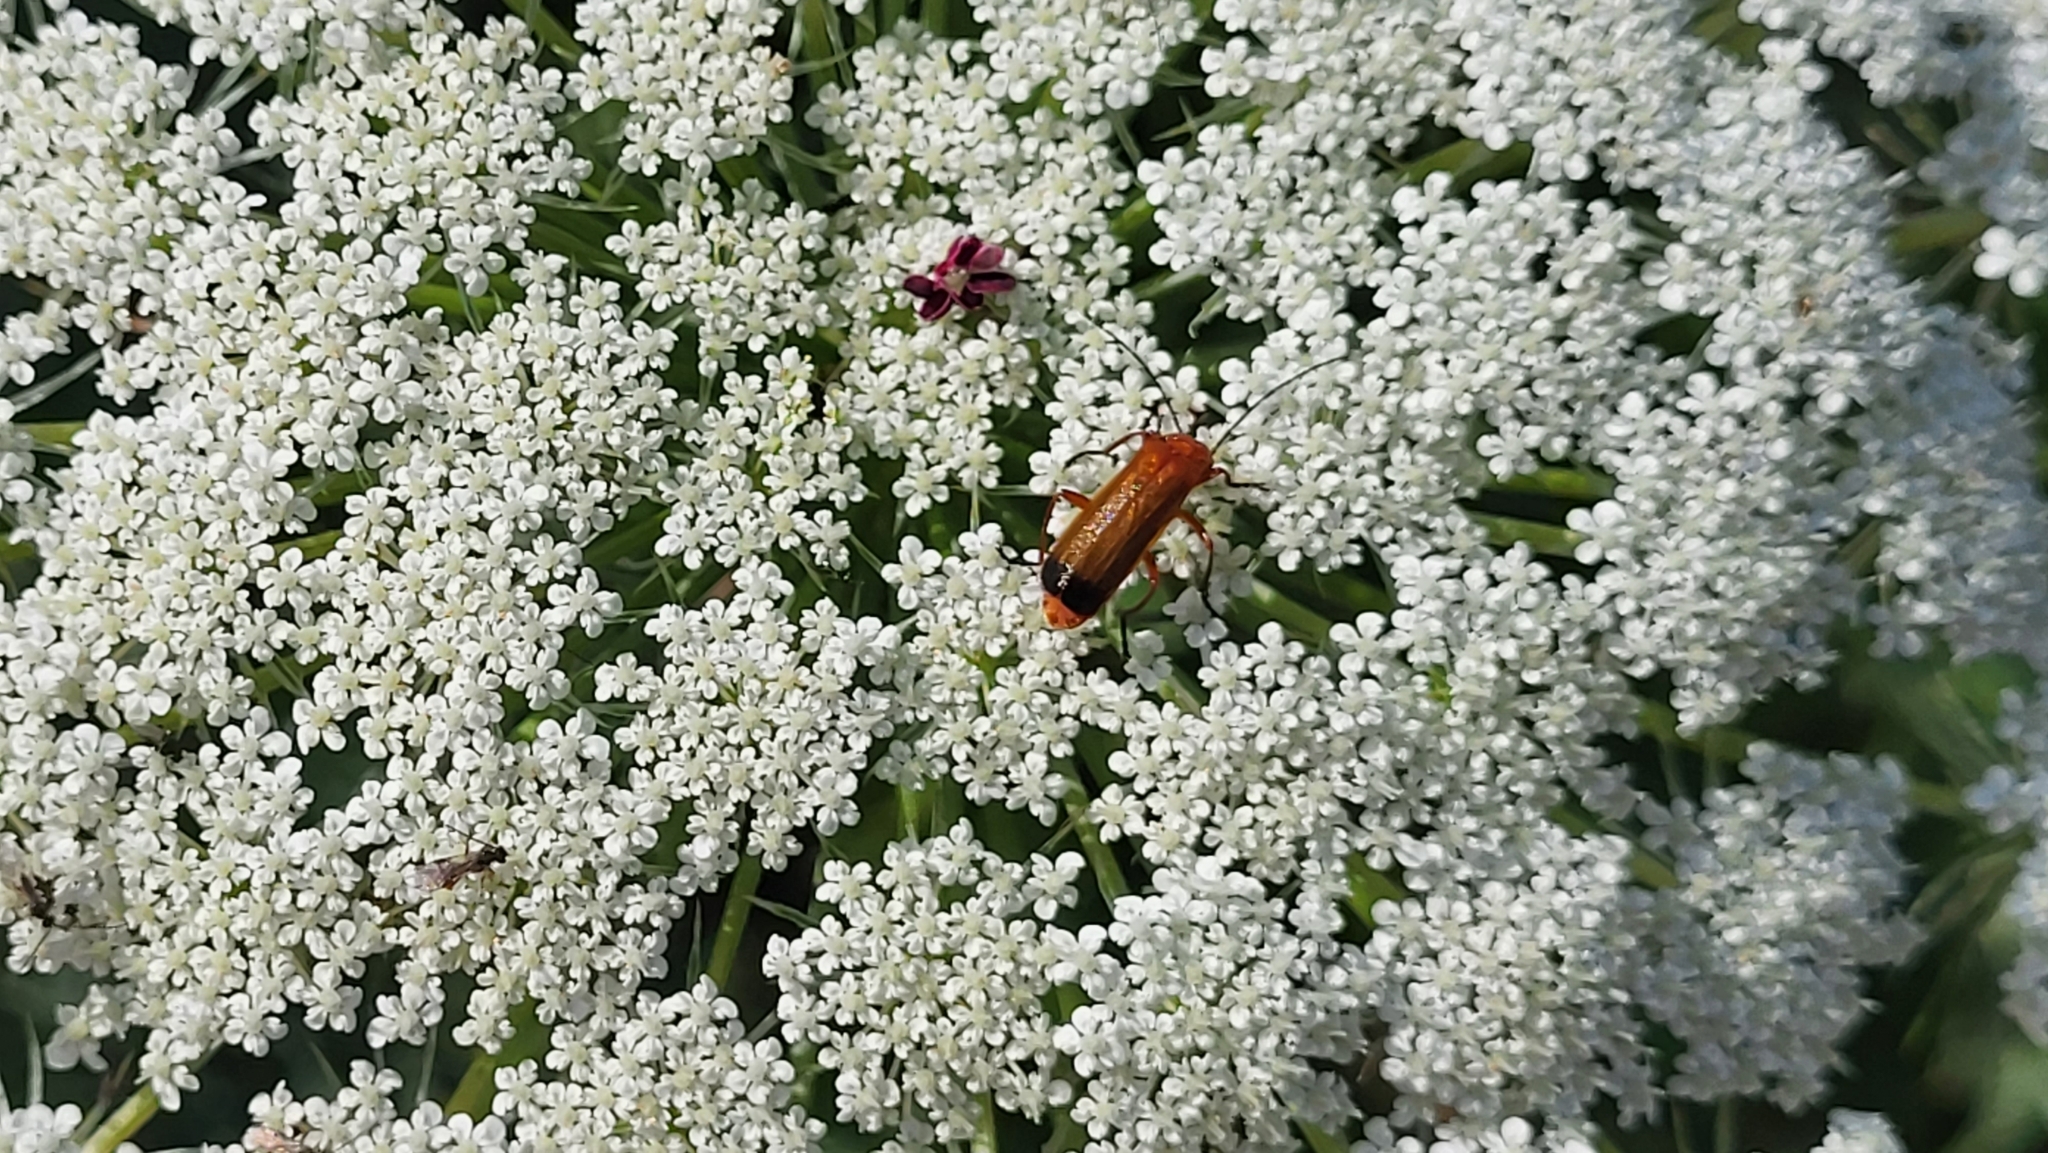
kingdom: Animalia
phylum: Arthropoda
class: Insecta
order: Coleoptera
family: Cantharidae
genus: Rhagonycha
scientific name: Rhagonycha fulva
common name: Common red soldier beetle
